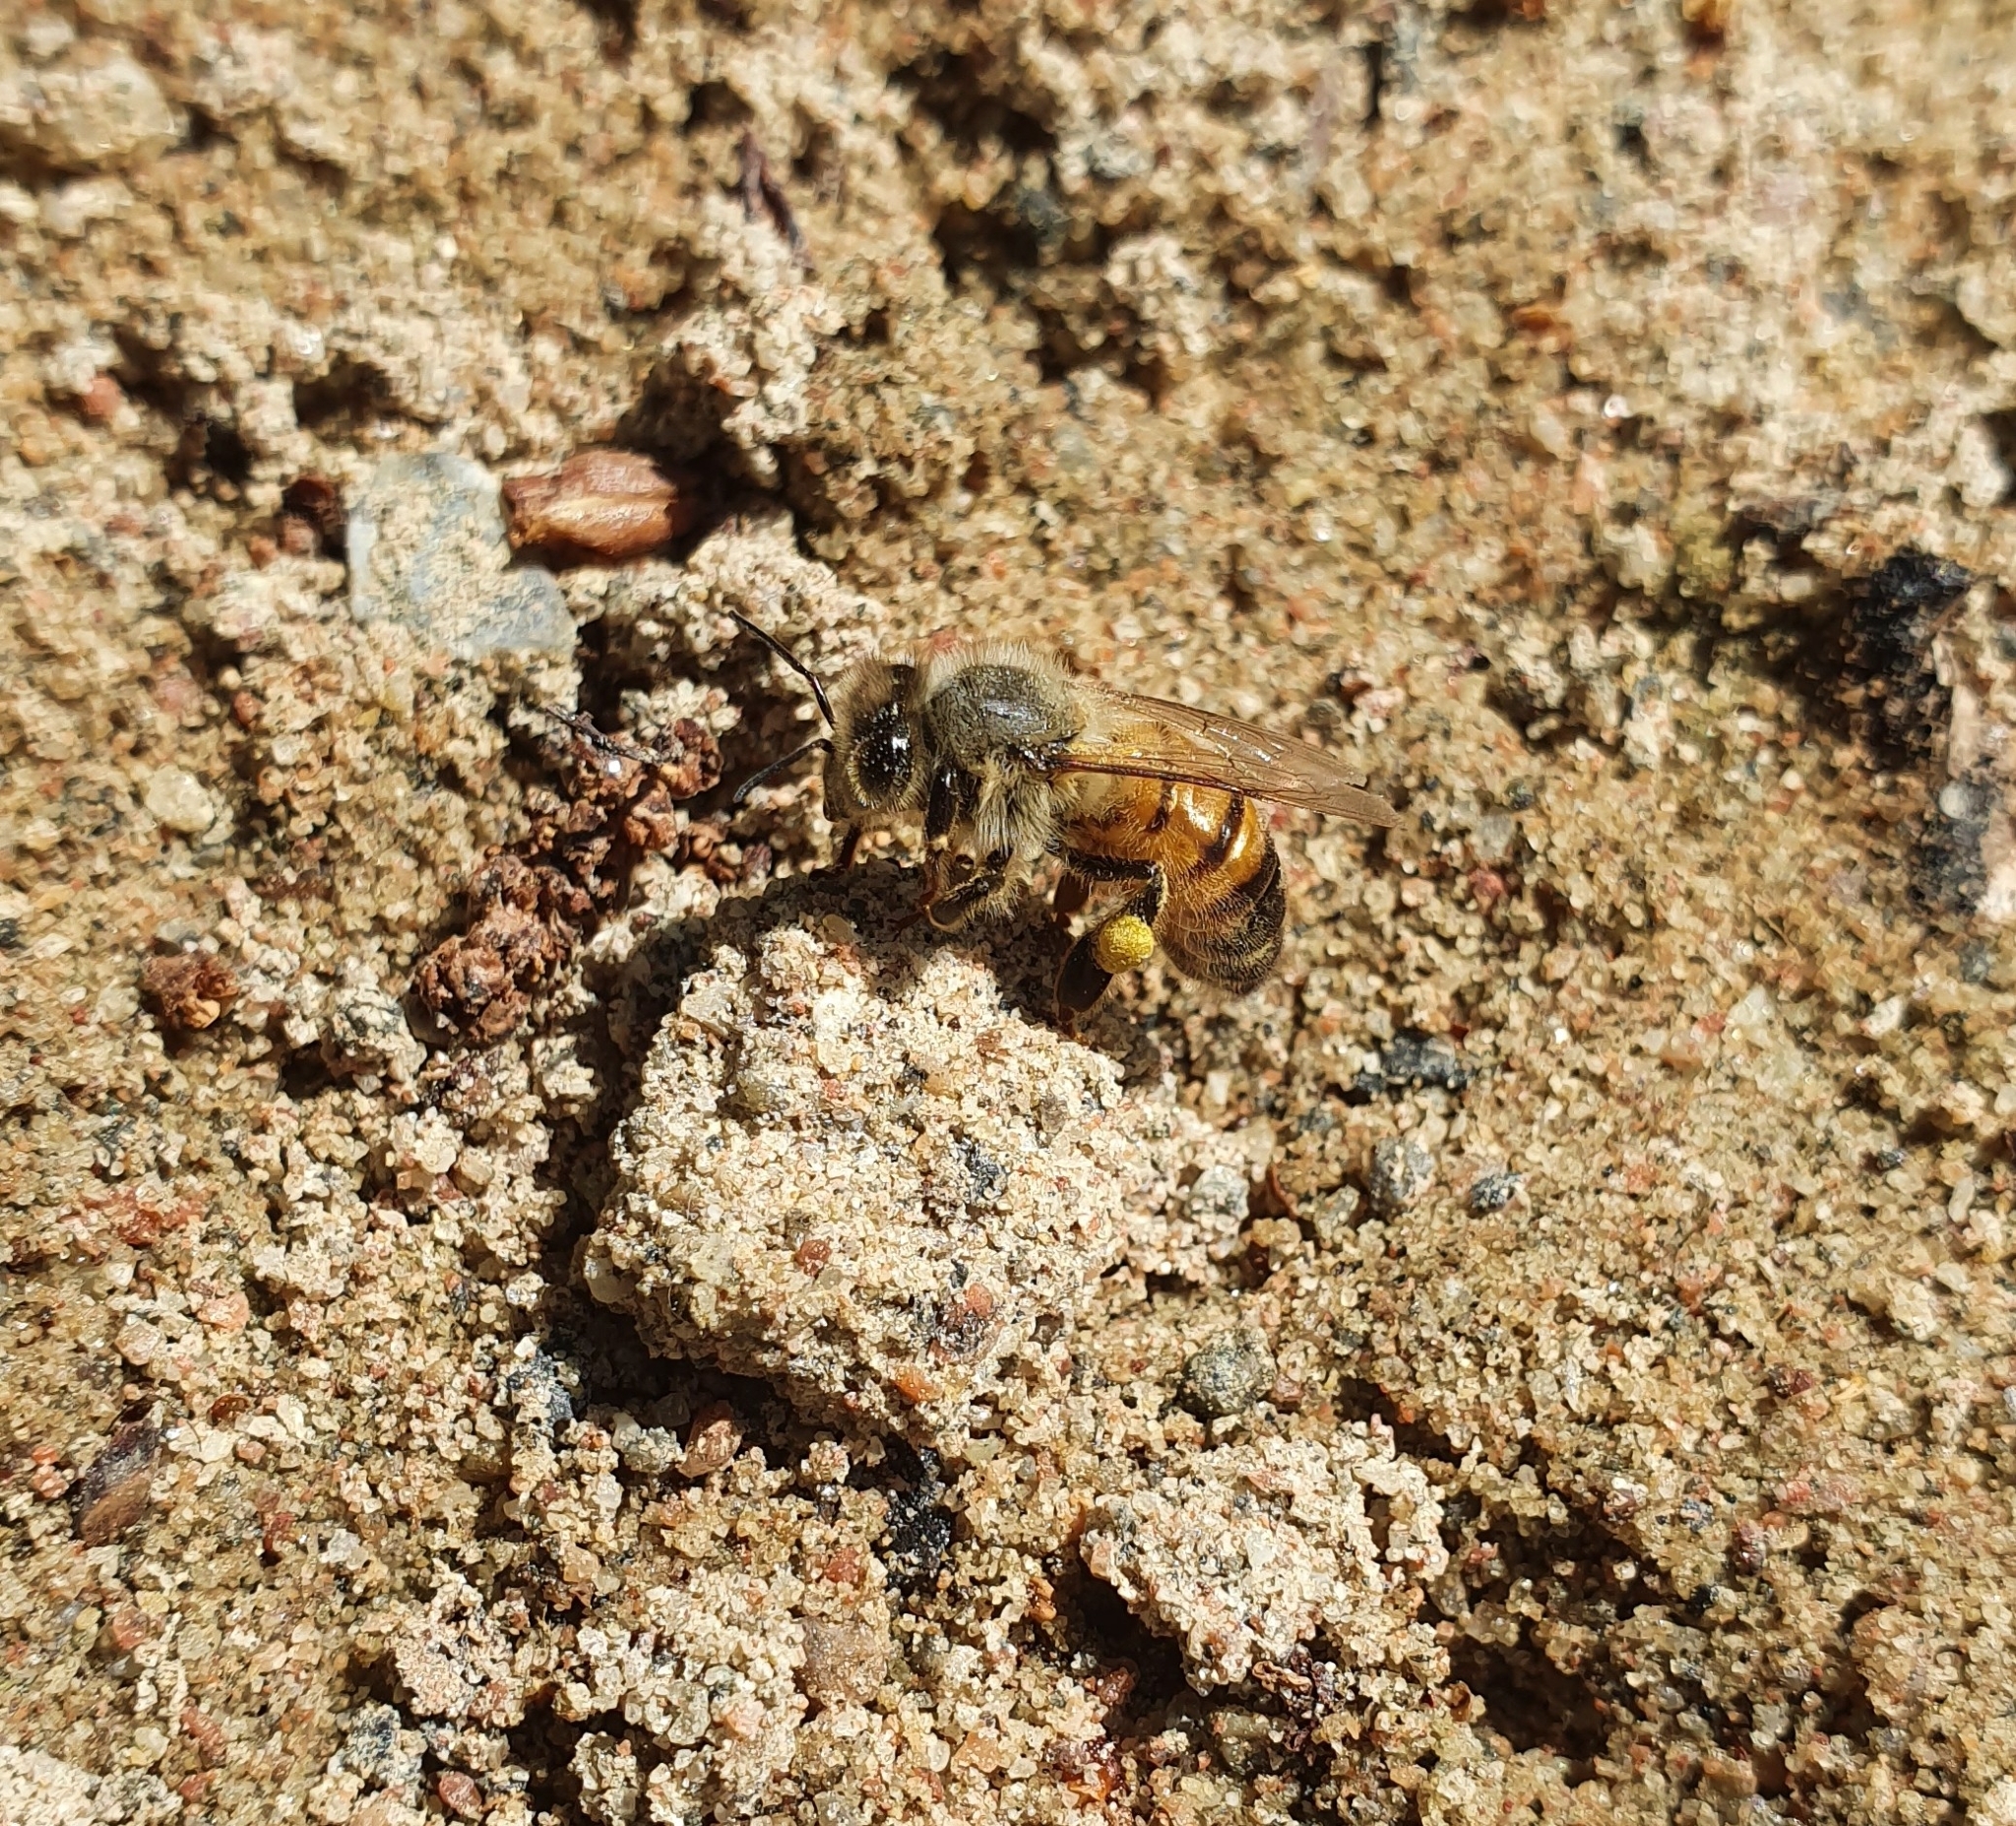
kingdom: Animalia
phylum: Arthropoda
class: Insecta
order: Hymenoptera
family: Apidae
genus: Apis
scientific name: Apis mellifera
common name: Honey bee
